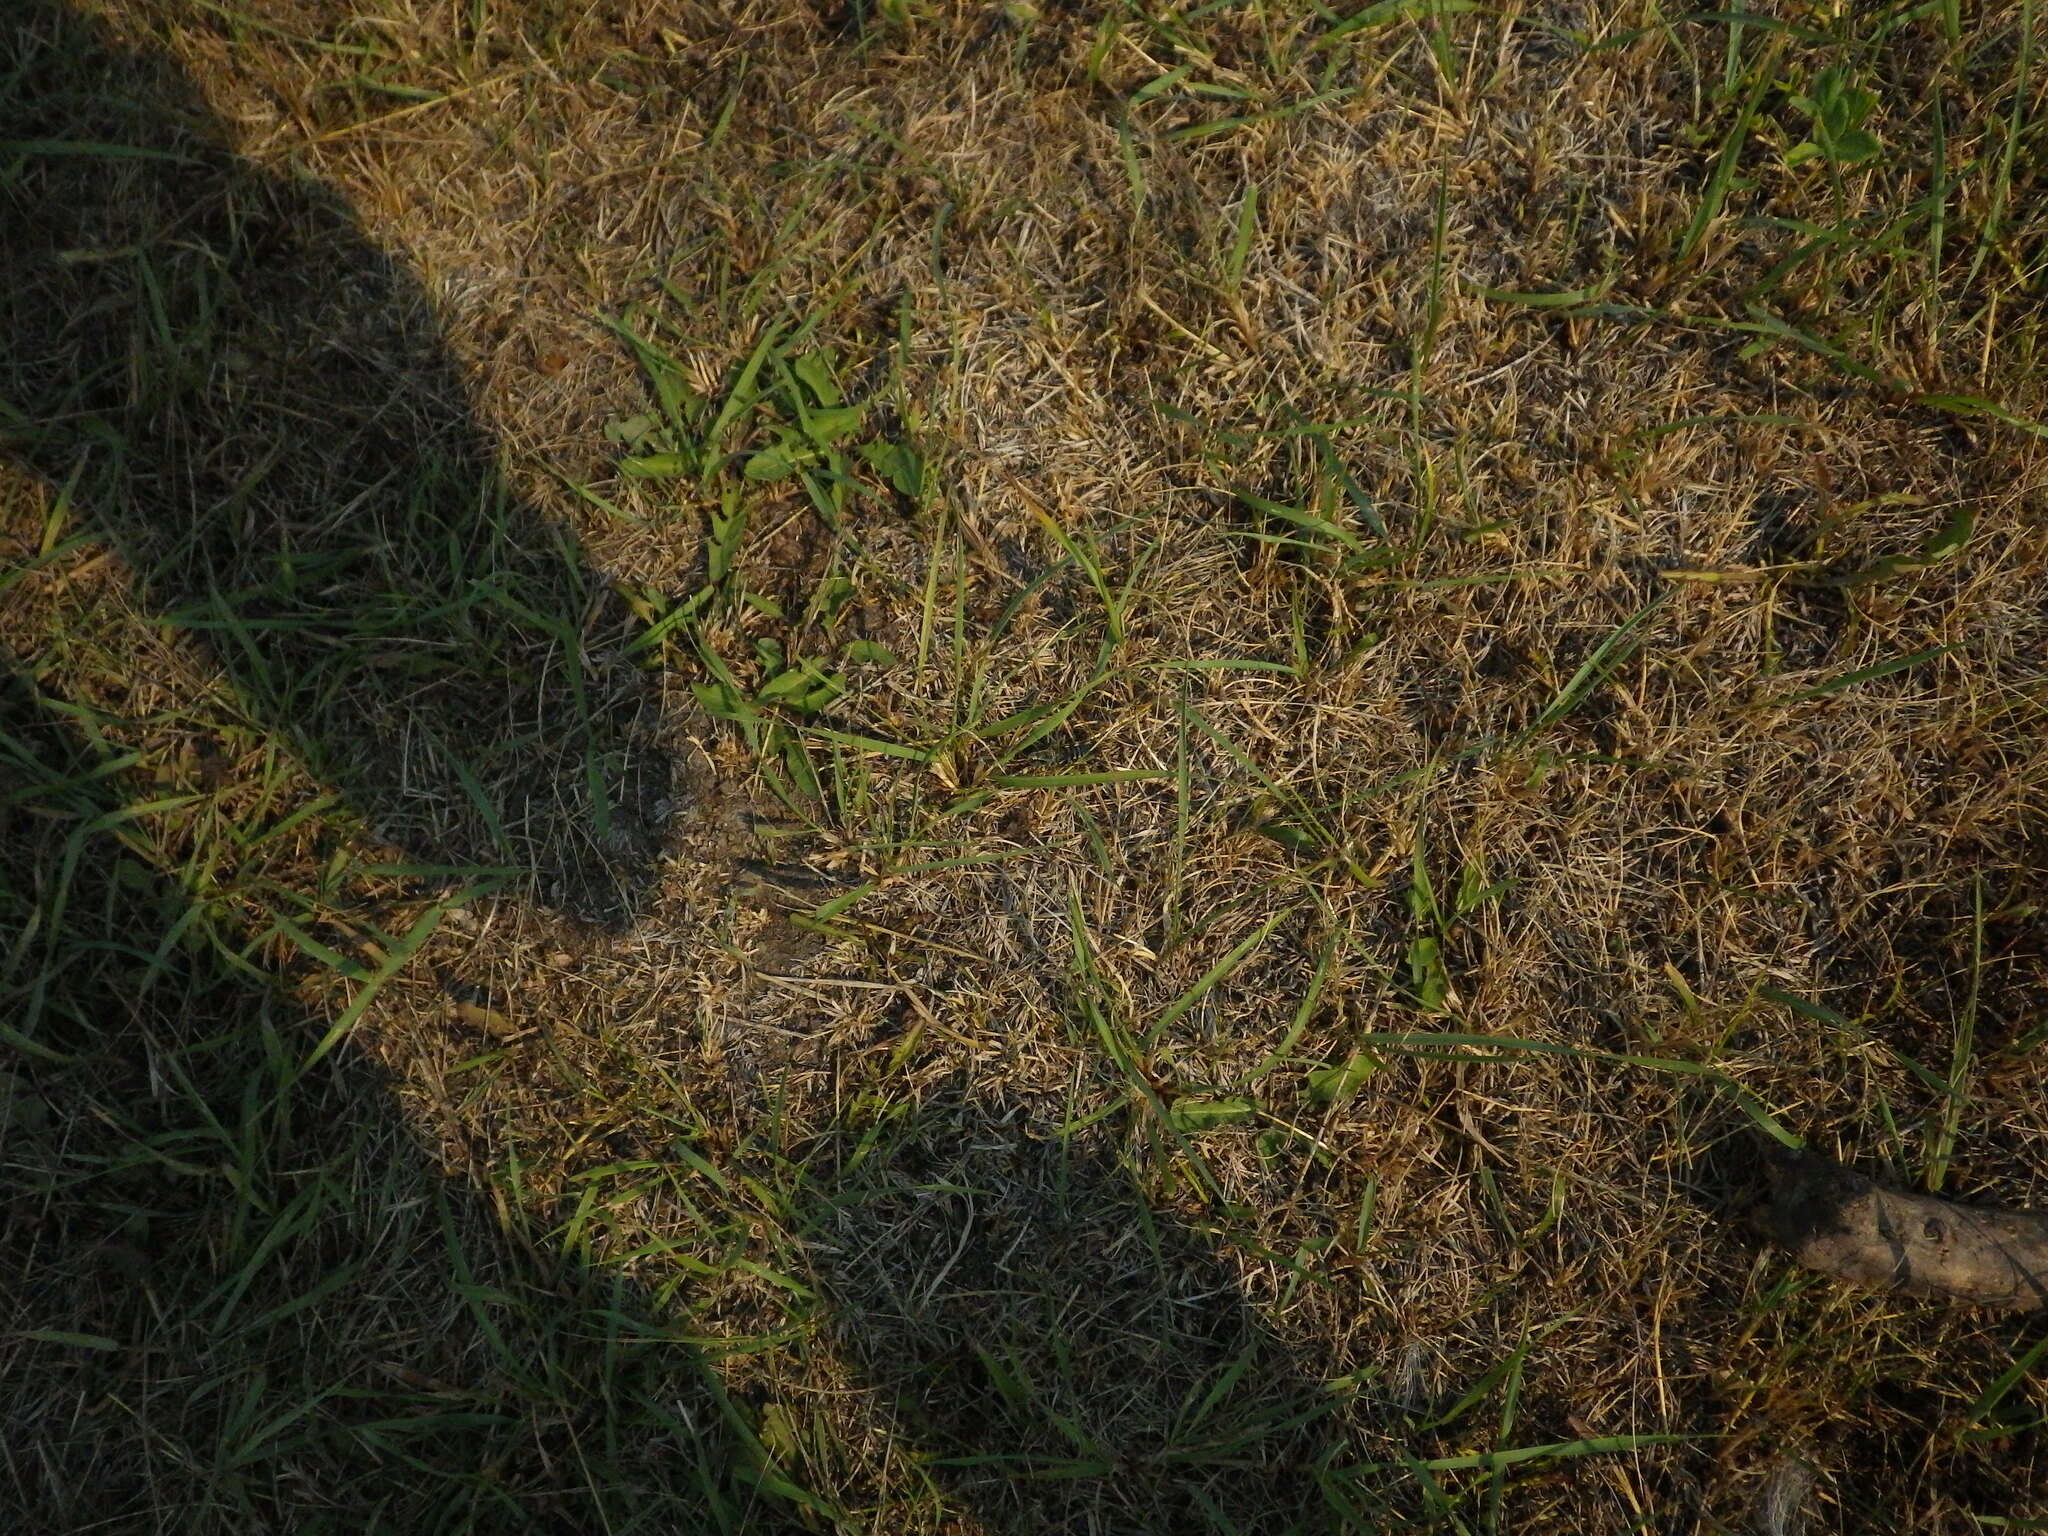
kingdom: Animalia
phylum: Arthropoda
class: Insecta
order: Orthoptera
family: Acrididae
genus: Melanoplus
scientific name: Melanoplus dawsoni
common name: Dawson grasshopper
